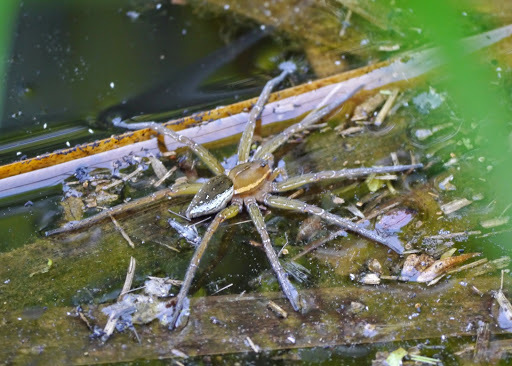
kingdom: Animalia
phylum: Arthropoda
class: Arachnida
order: Araneae
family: Pisauridae
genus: Dolomedes
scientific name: Dolomedes triton
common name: Six-spotted fishing spider
